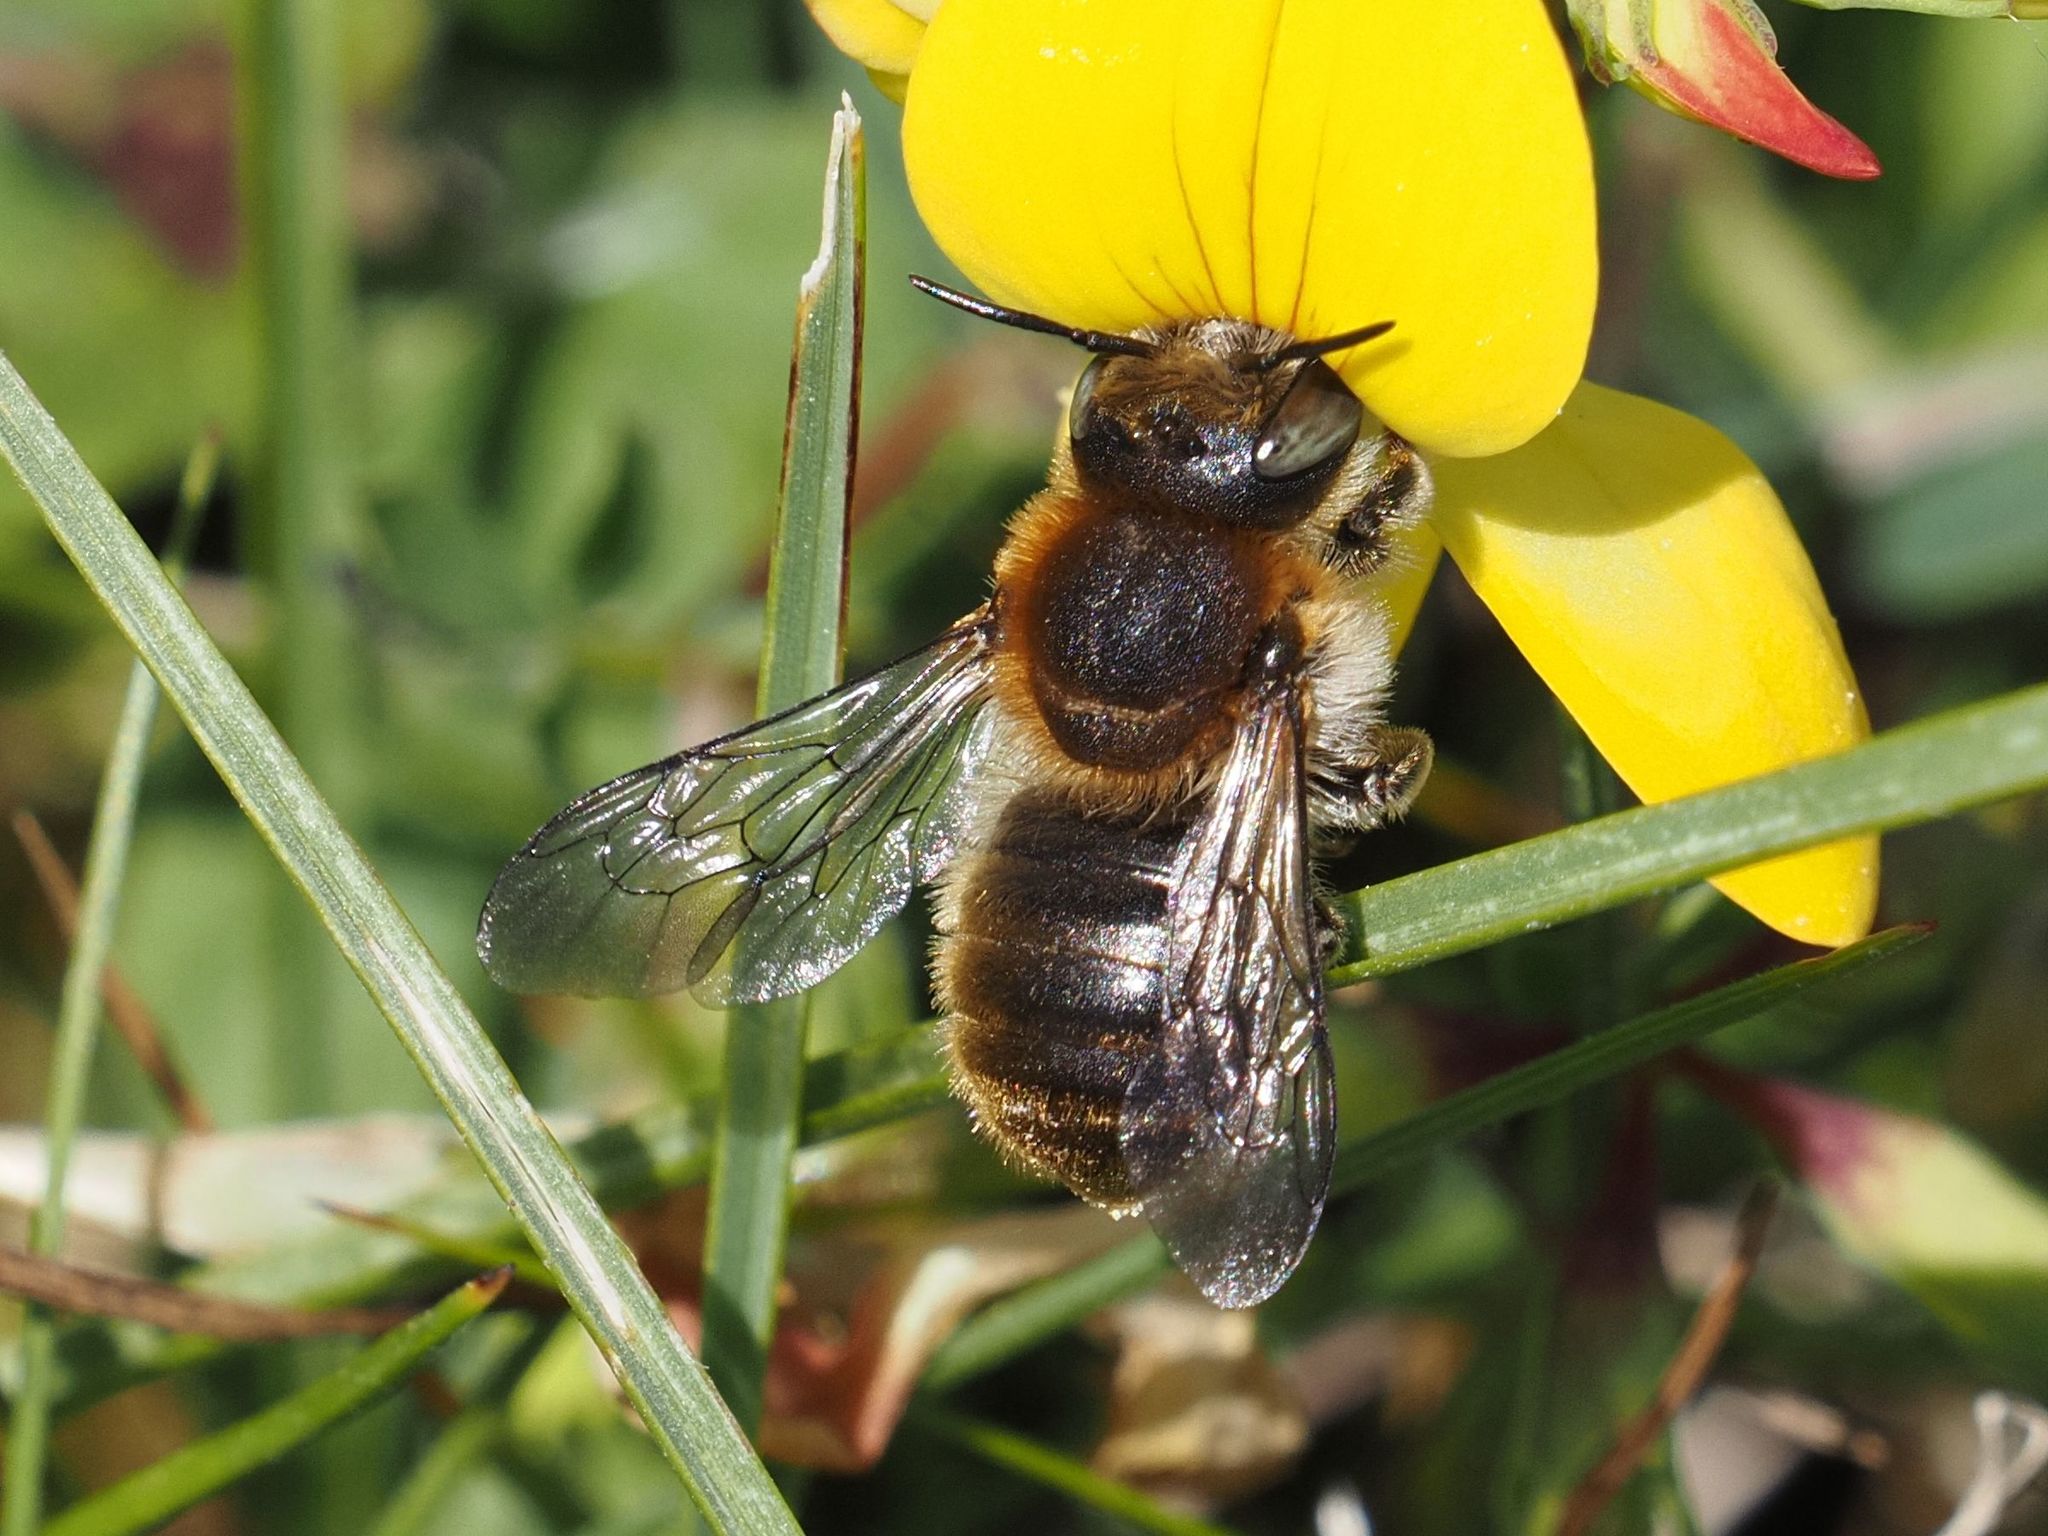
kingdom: Animalia
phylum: Arthropoda
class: Insecta
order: Hymenoptera
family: Megachilidae
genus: Trachusa
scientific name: Trachusa byssina
